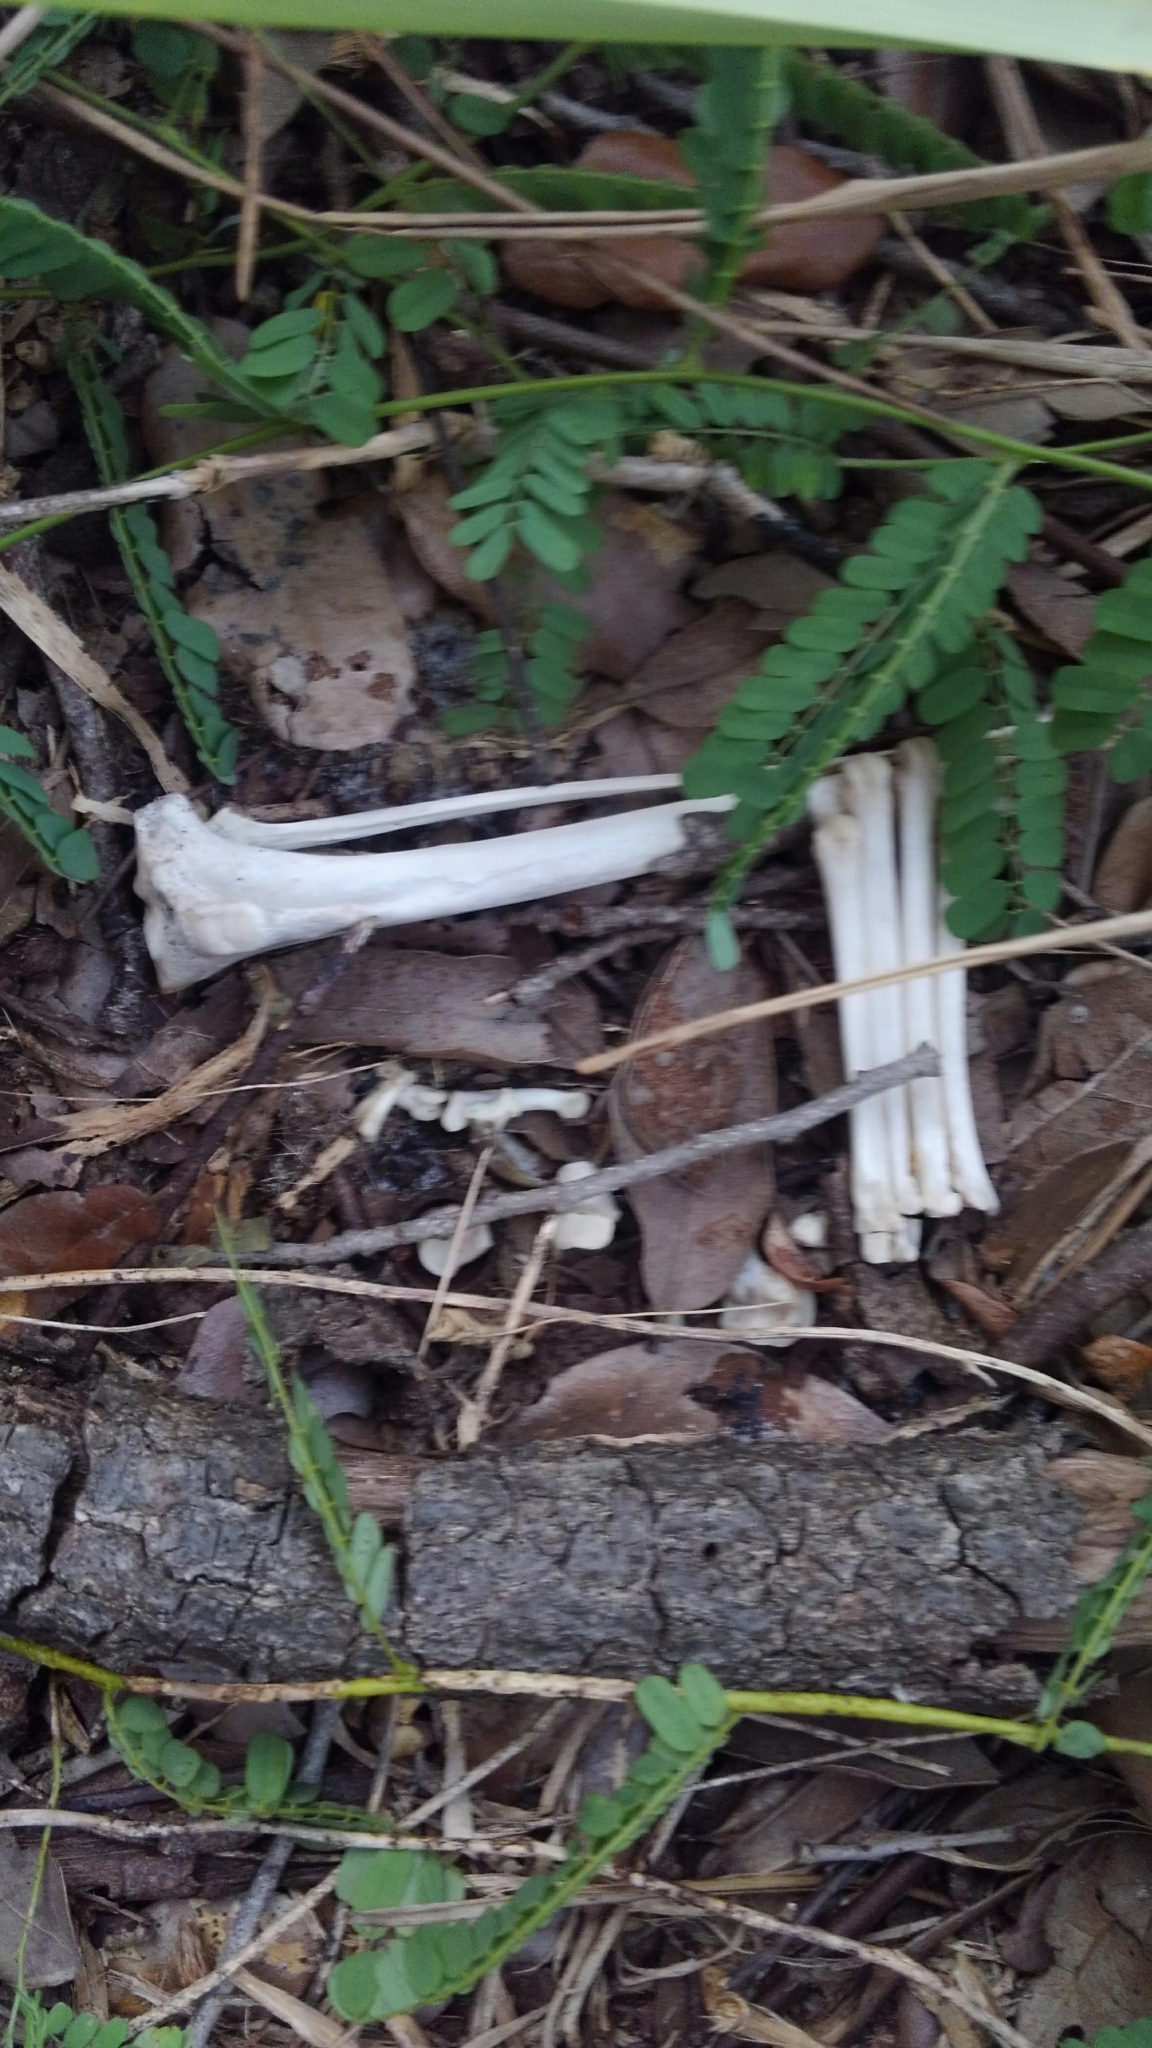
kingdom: Animalia
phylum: Chordata
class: Mammalia
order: Carnivora
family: Canidae
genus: Urocyon
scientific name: Urocyon cinereoargenteus
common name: Gray fox
